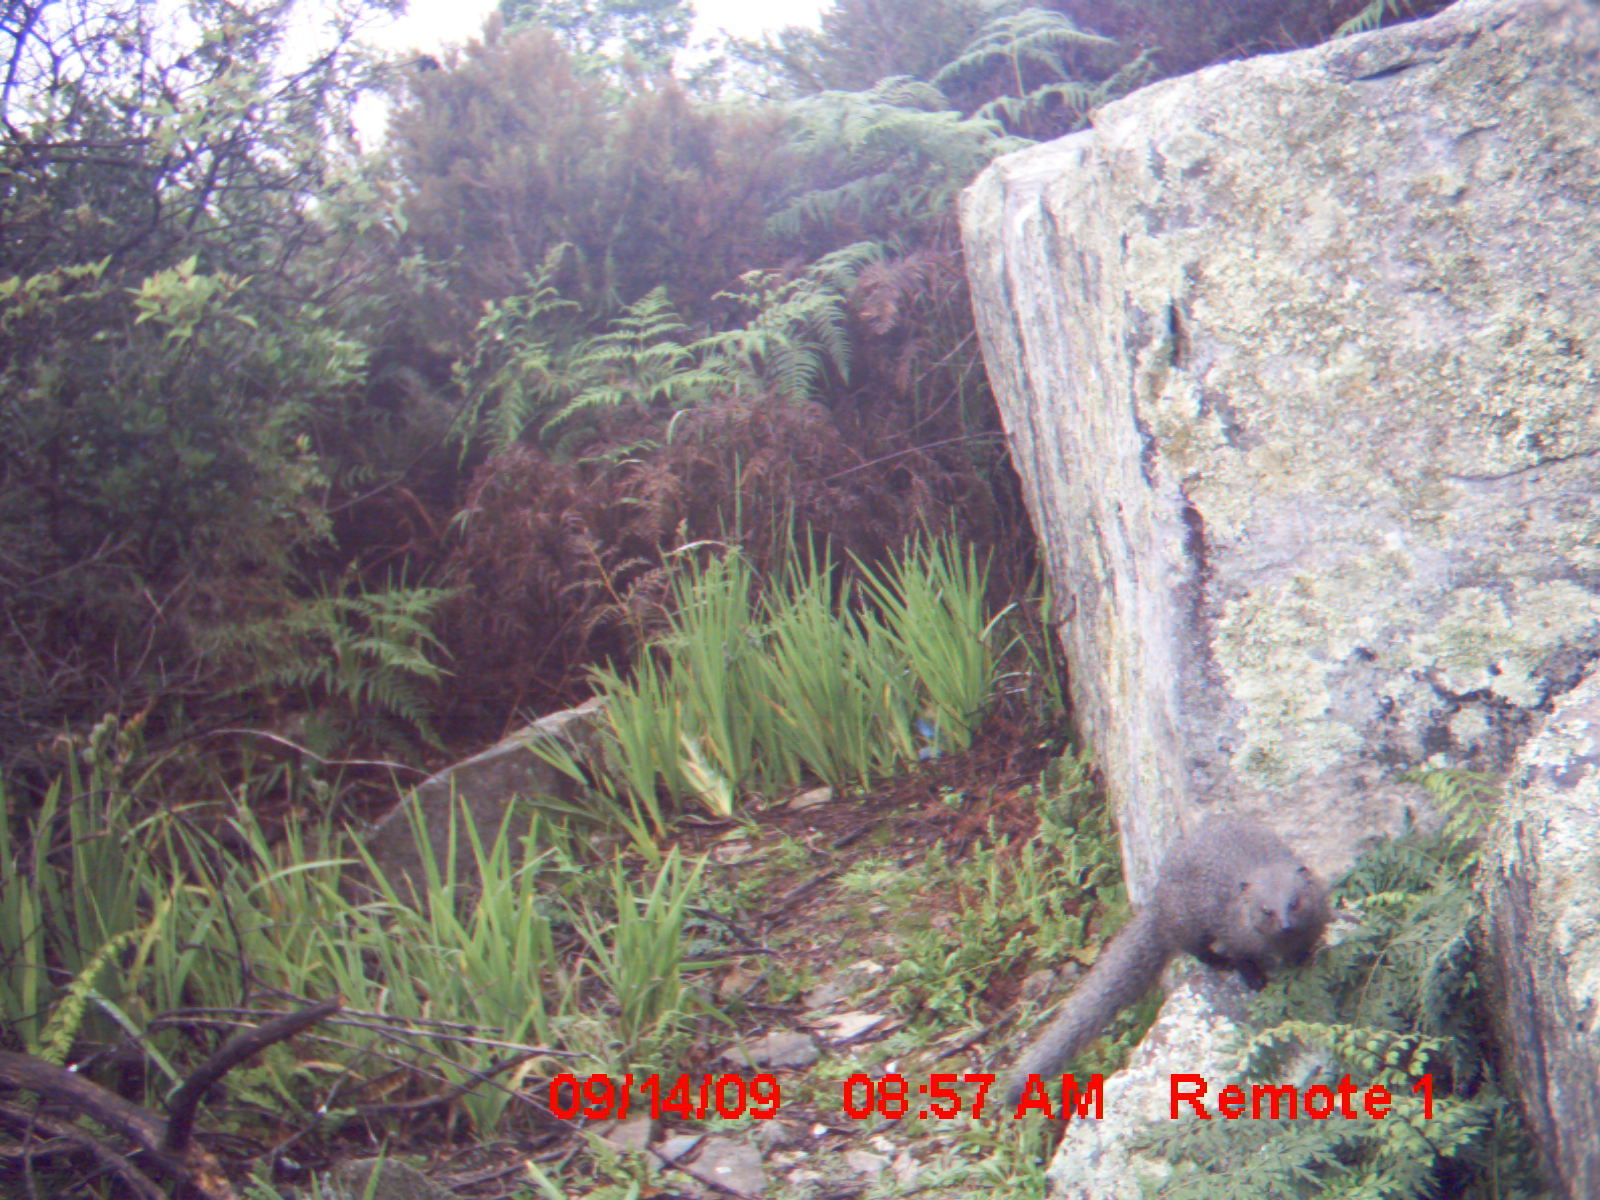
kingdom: Animalia
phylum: Chordata
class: Mammalia
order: Carnivora
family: Herpestidae
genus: Galerella
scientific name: Galerella pulverulenta
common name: Cape gray mongoose
